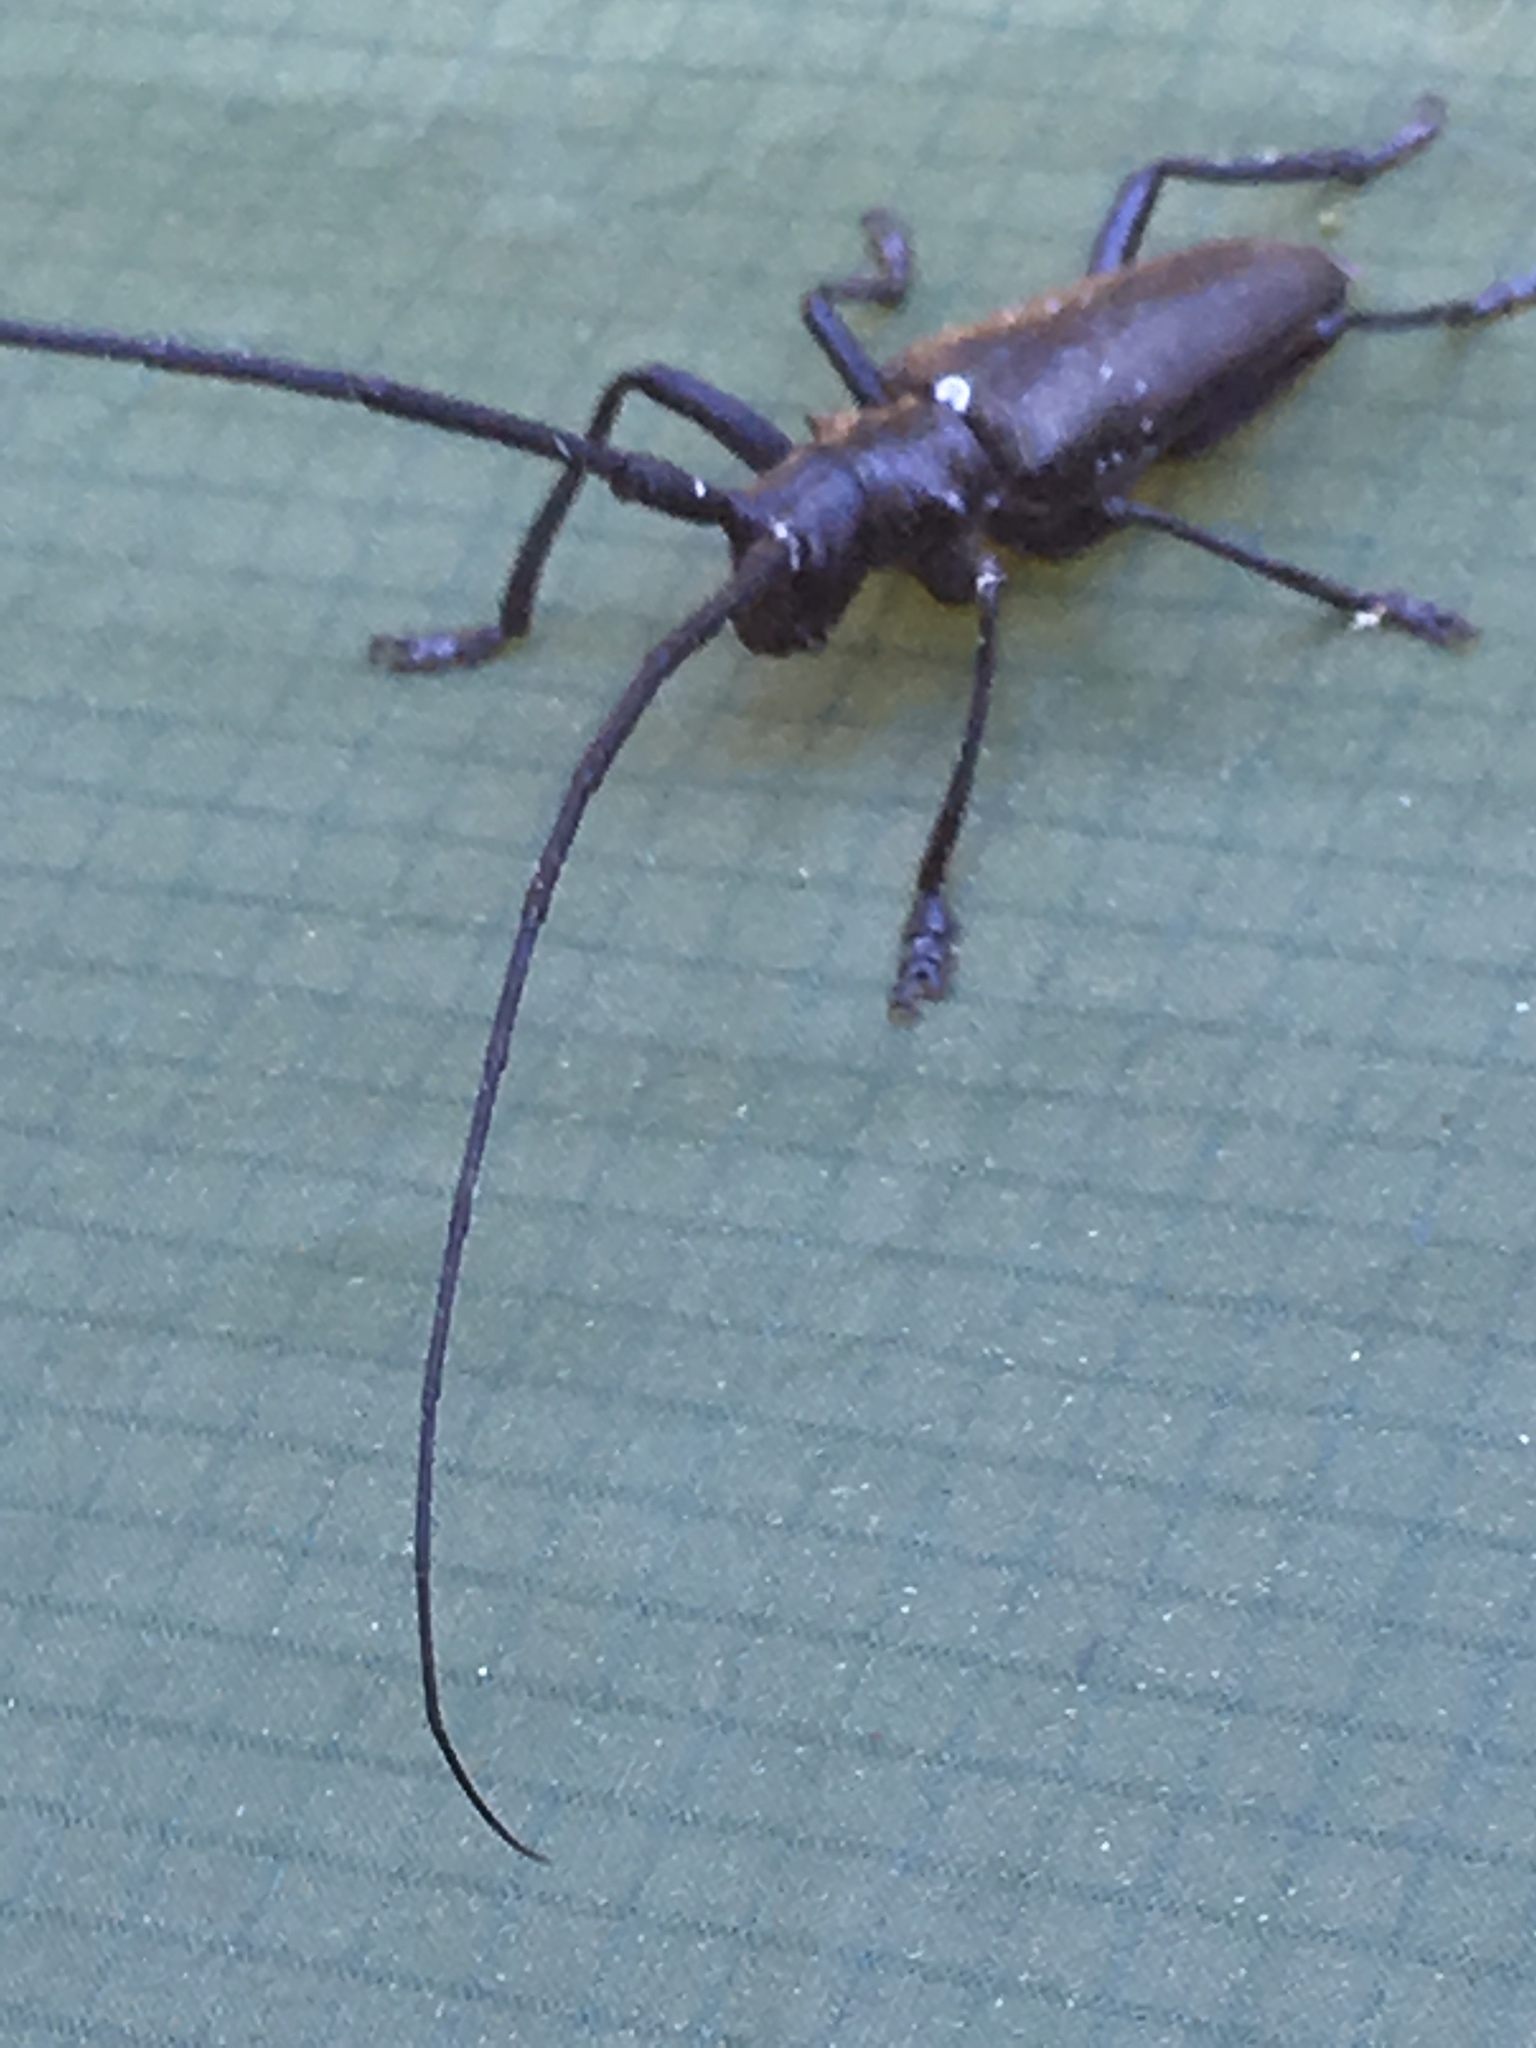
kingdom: Animalia
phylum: Arthropoda
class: Insecta
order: Coleoptera
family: Cerambycidae
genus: Monochamus
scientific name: Monochamus scutellatus
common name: White-spotted sawyer beetle
